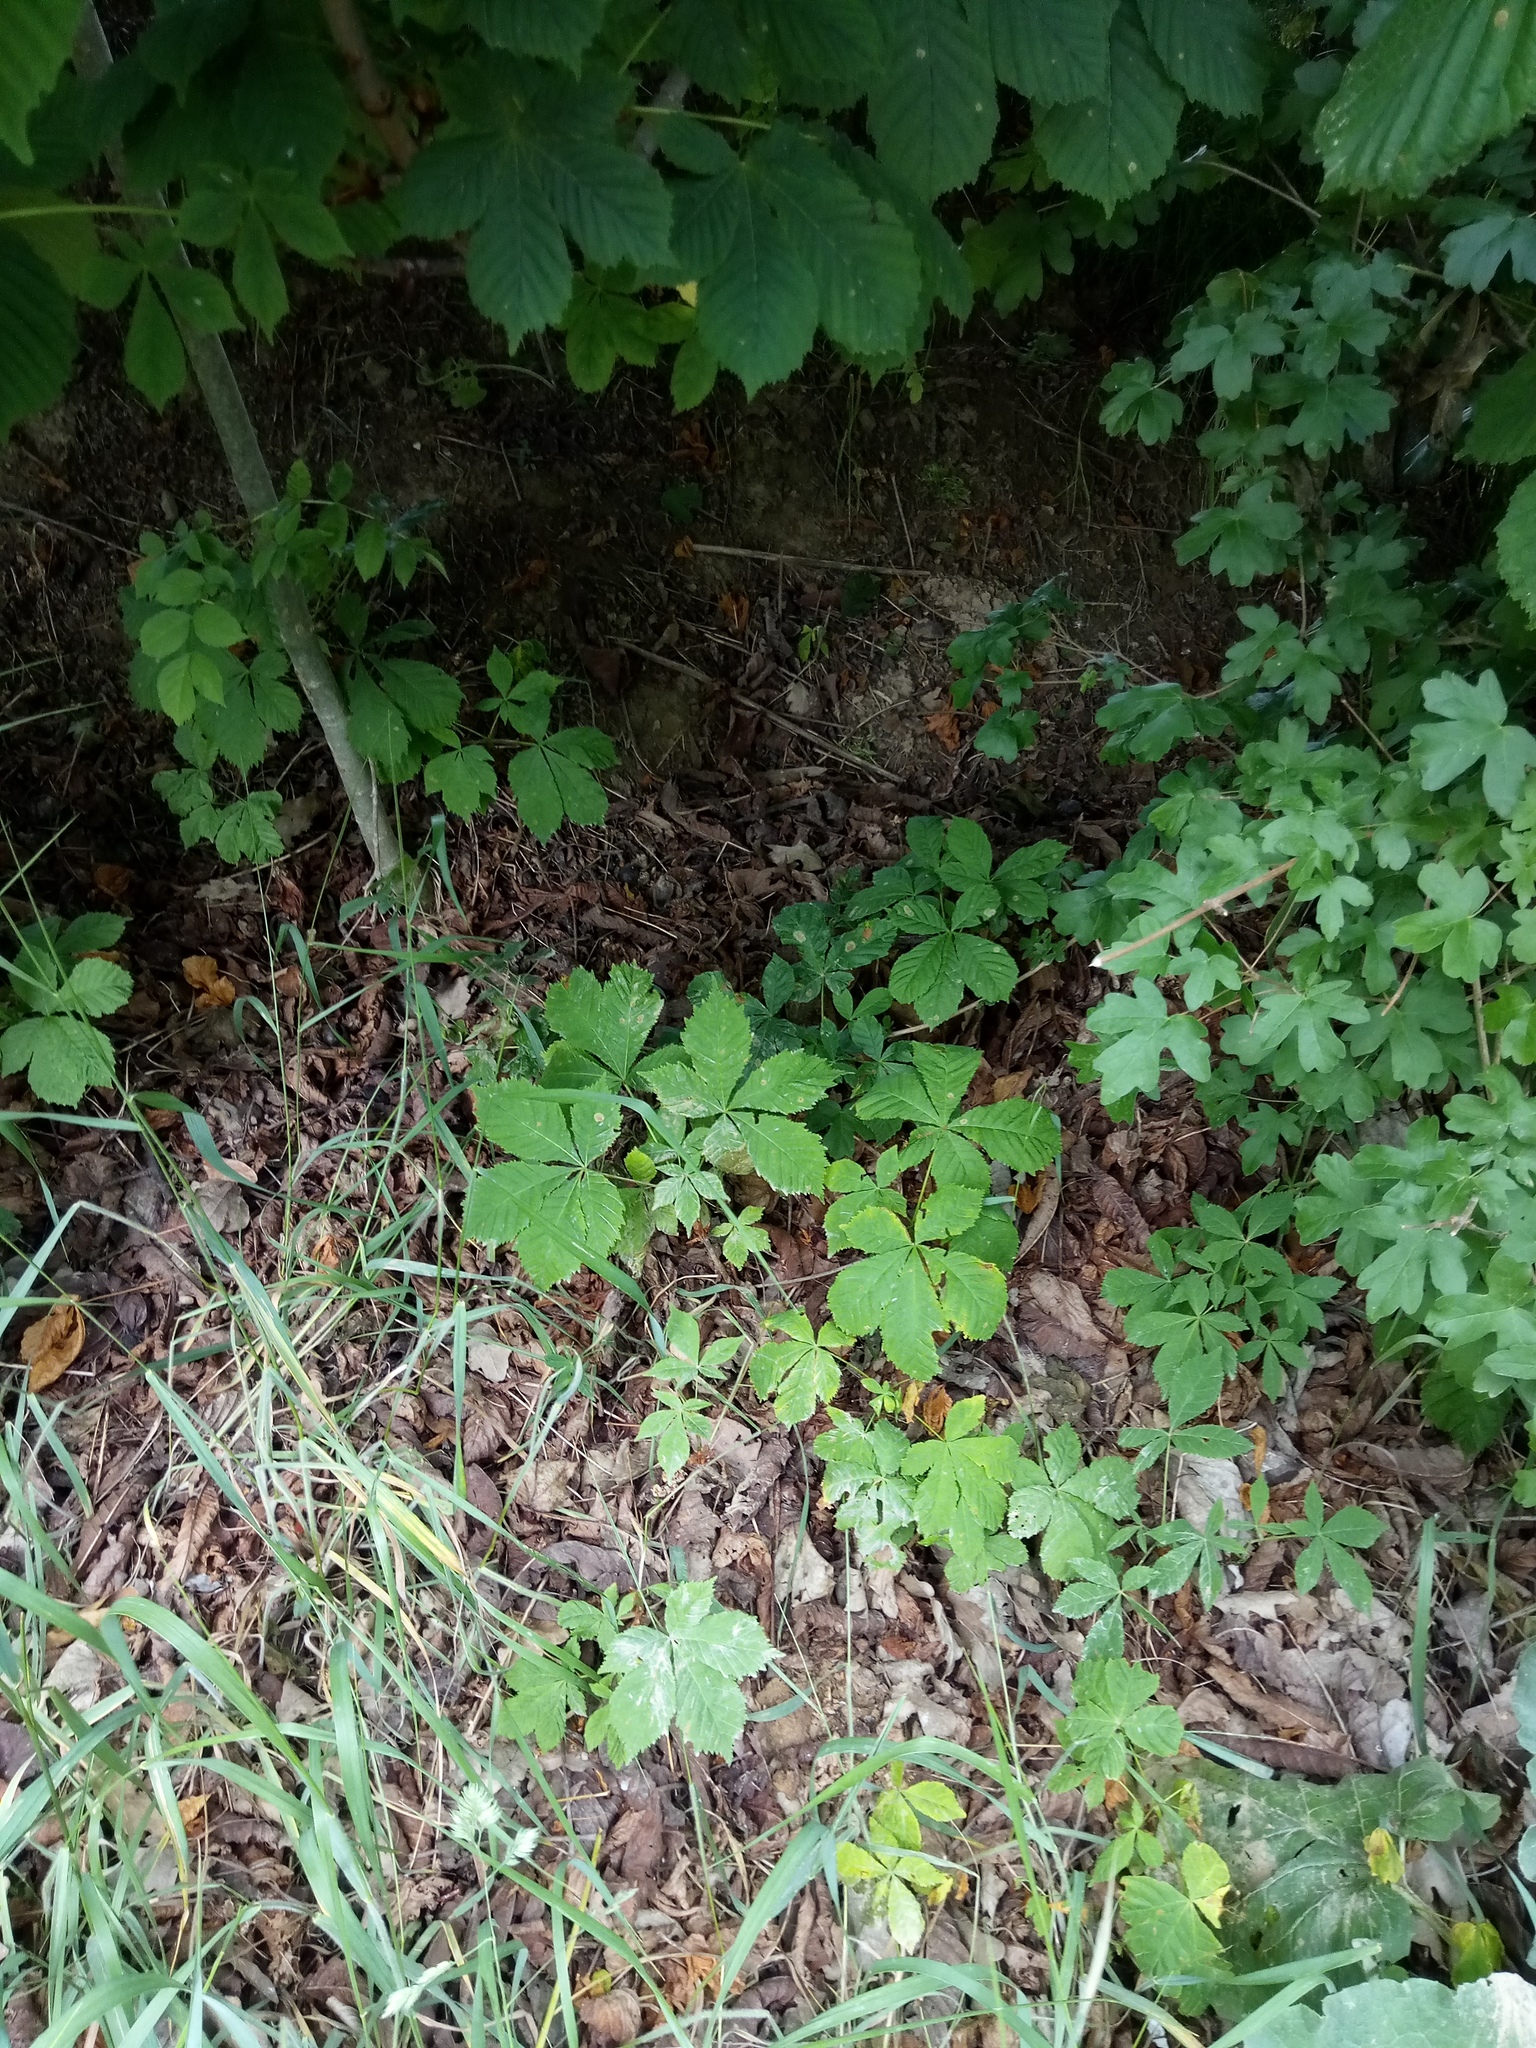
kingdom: Plantae
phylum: Tracheophyta
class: Magnoliopsida
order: Sapindales
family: Sapindaceae
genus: Aesculus
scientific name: Aesculus hippocastanum
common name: Horse-chestnut
